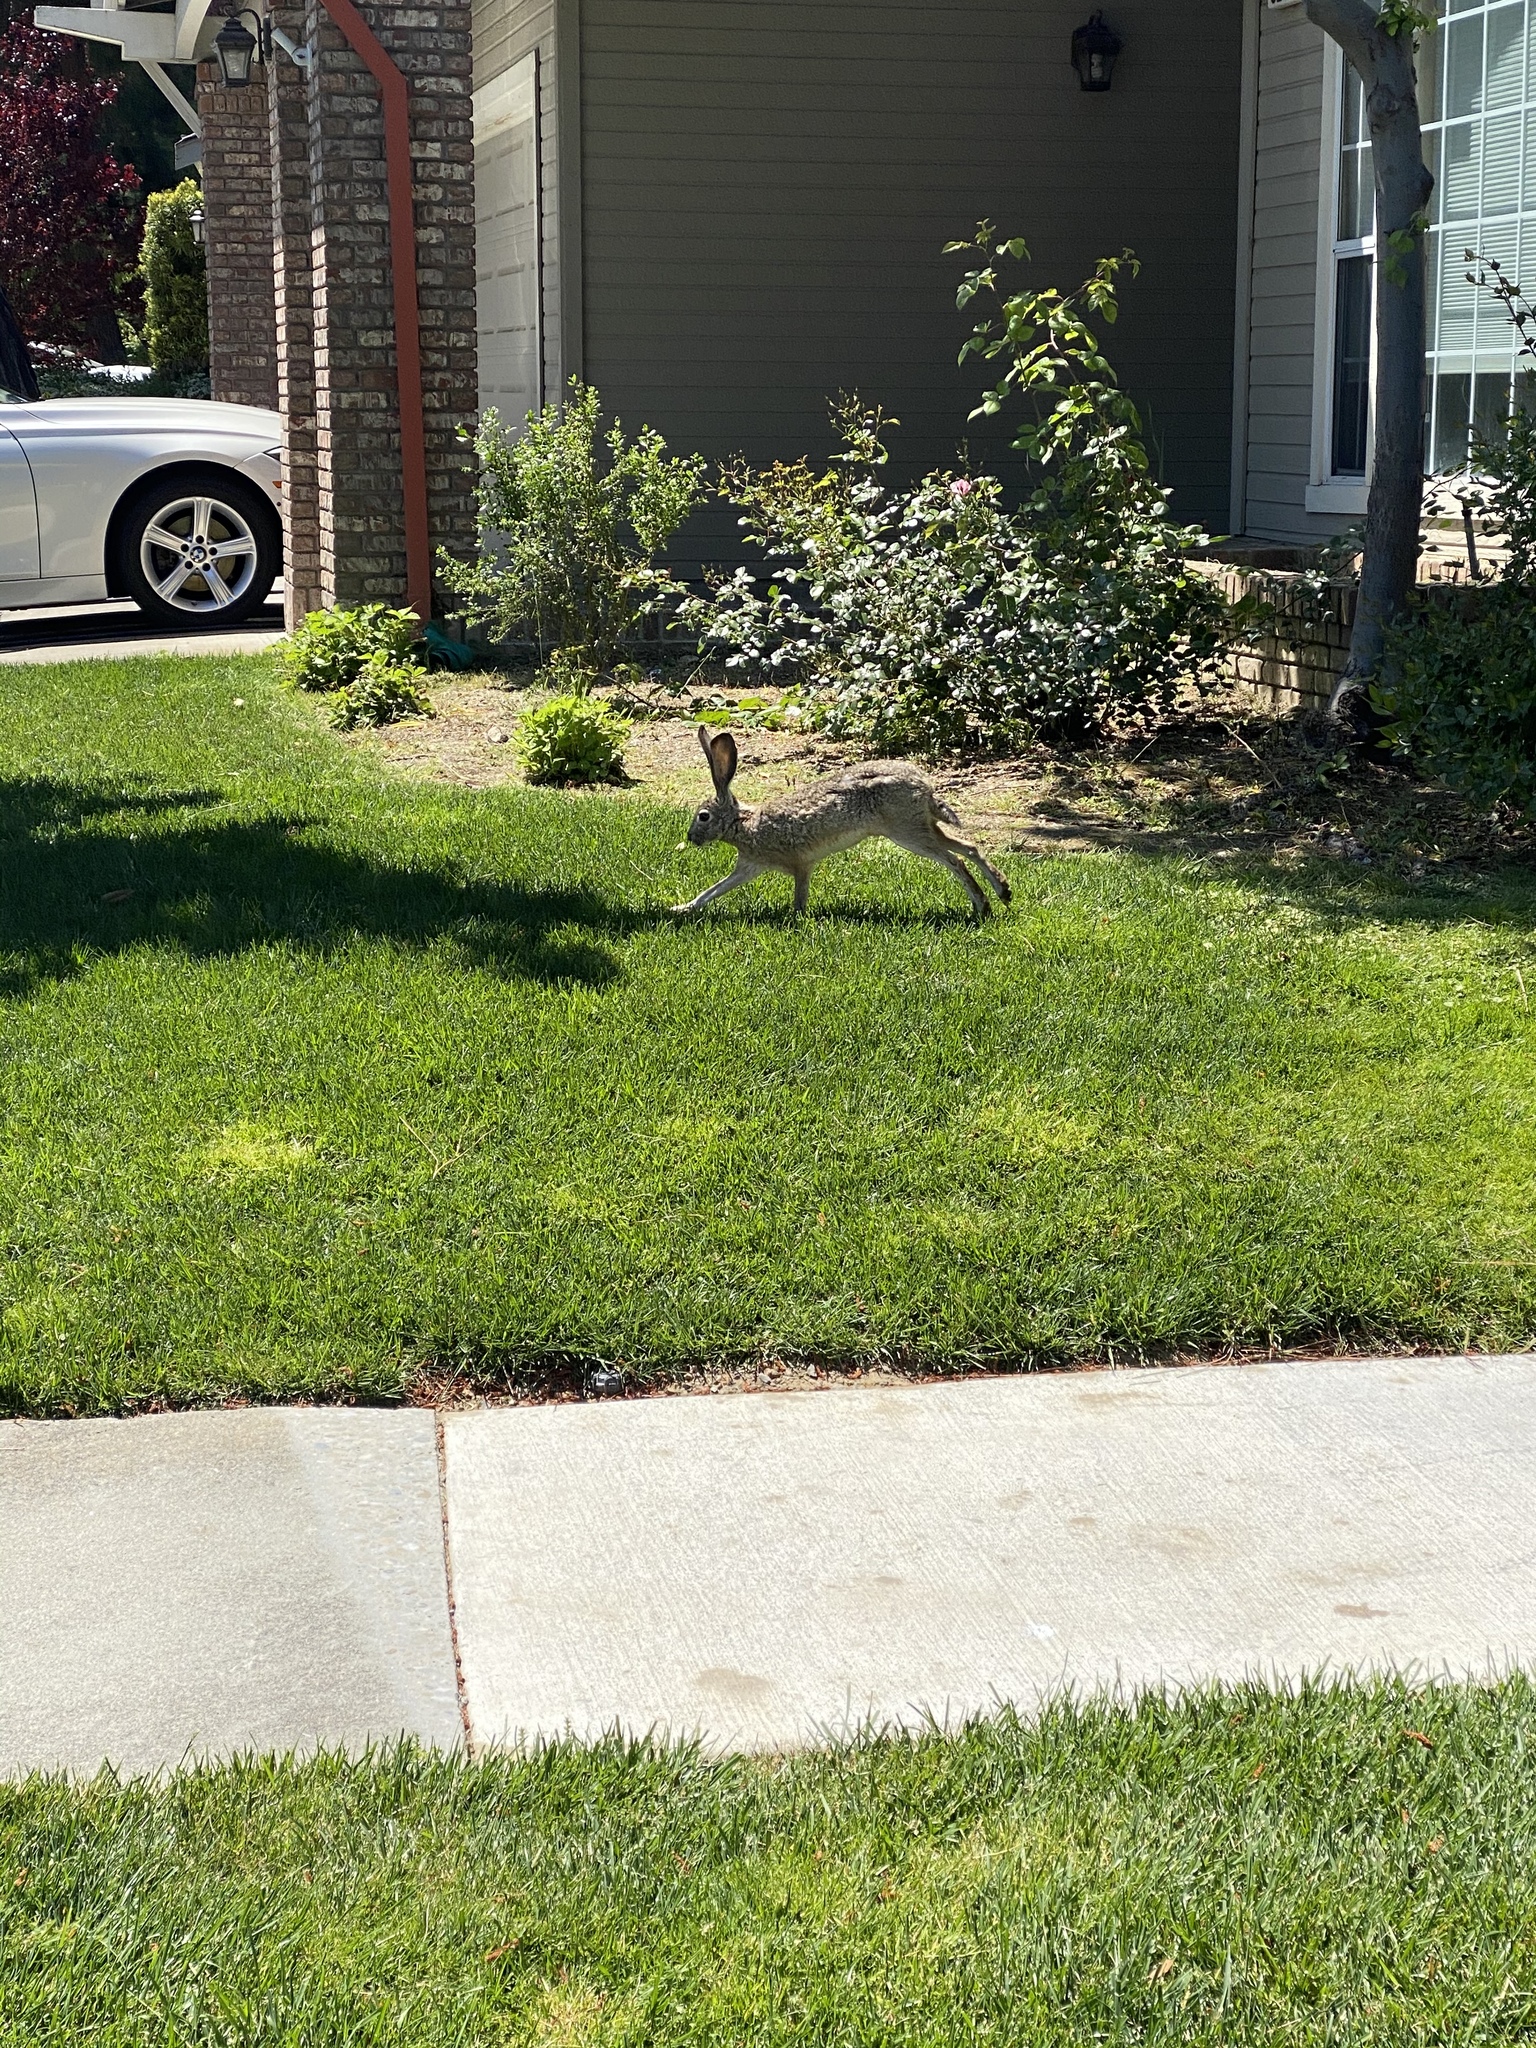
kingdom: Animalia
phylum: Chordata
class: Mammalia
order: Lagomorpha
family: Leporidae
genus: Lepus
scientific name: Lepus californicus
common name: Black-tailed jackrabbit
